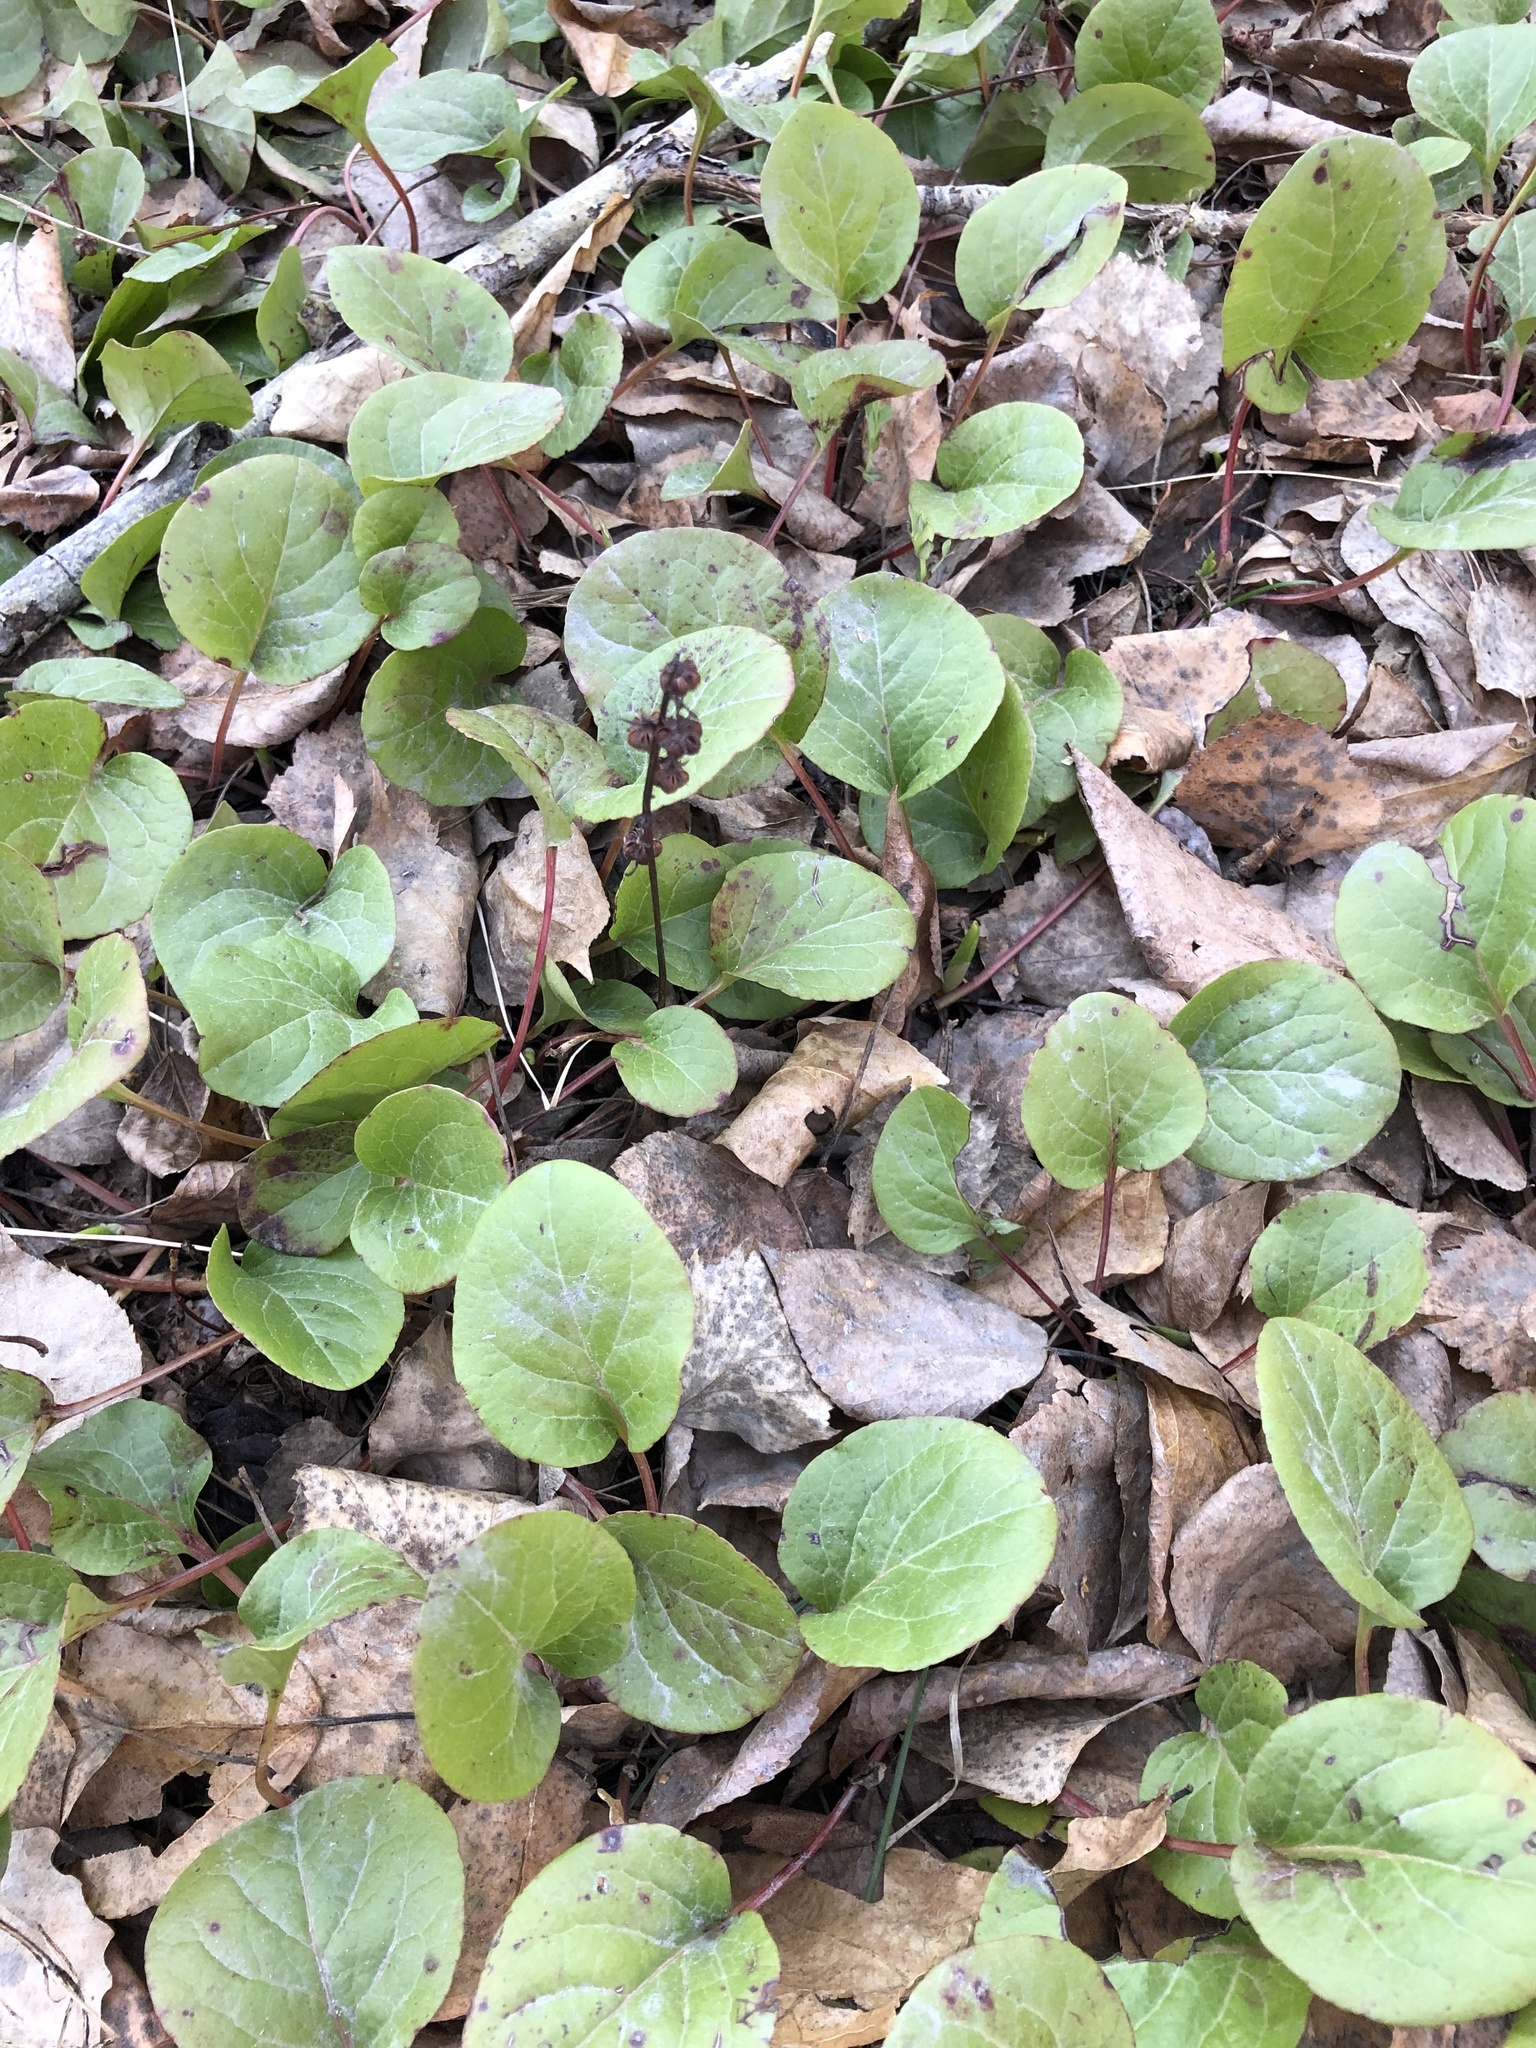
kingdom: Plantae
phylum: Tracheophyta
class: Magnoliopsida
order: Ericales
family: Ericaceae
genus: Pyrola
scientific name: Pyrola rotundifolia
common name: Round-leaved wintergreen
